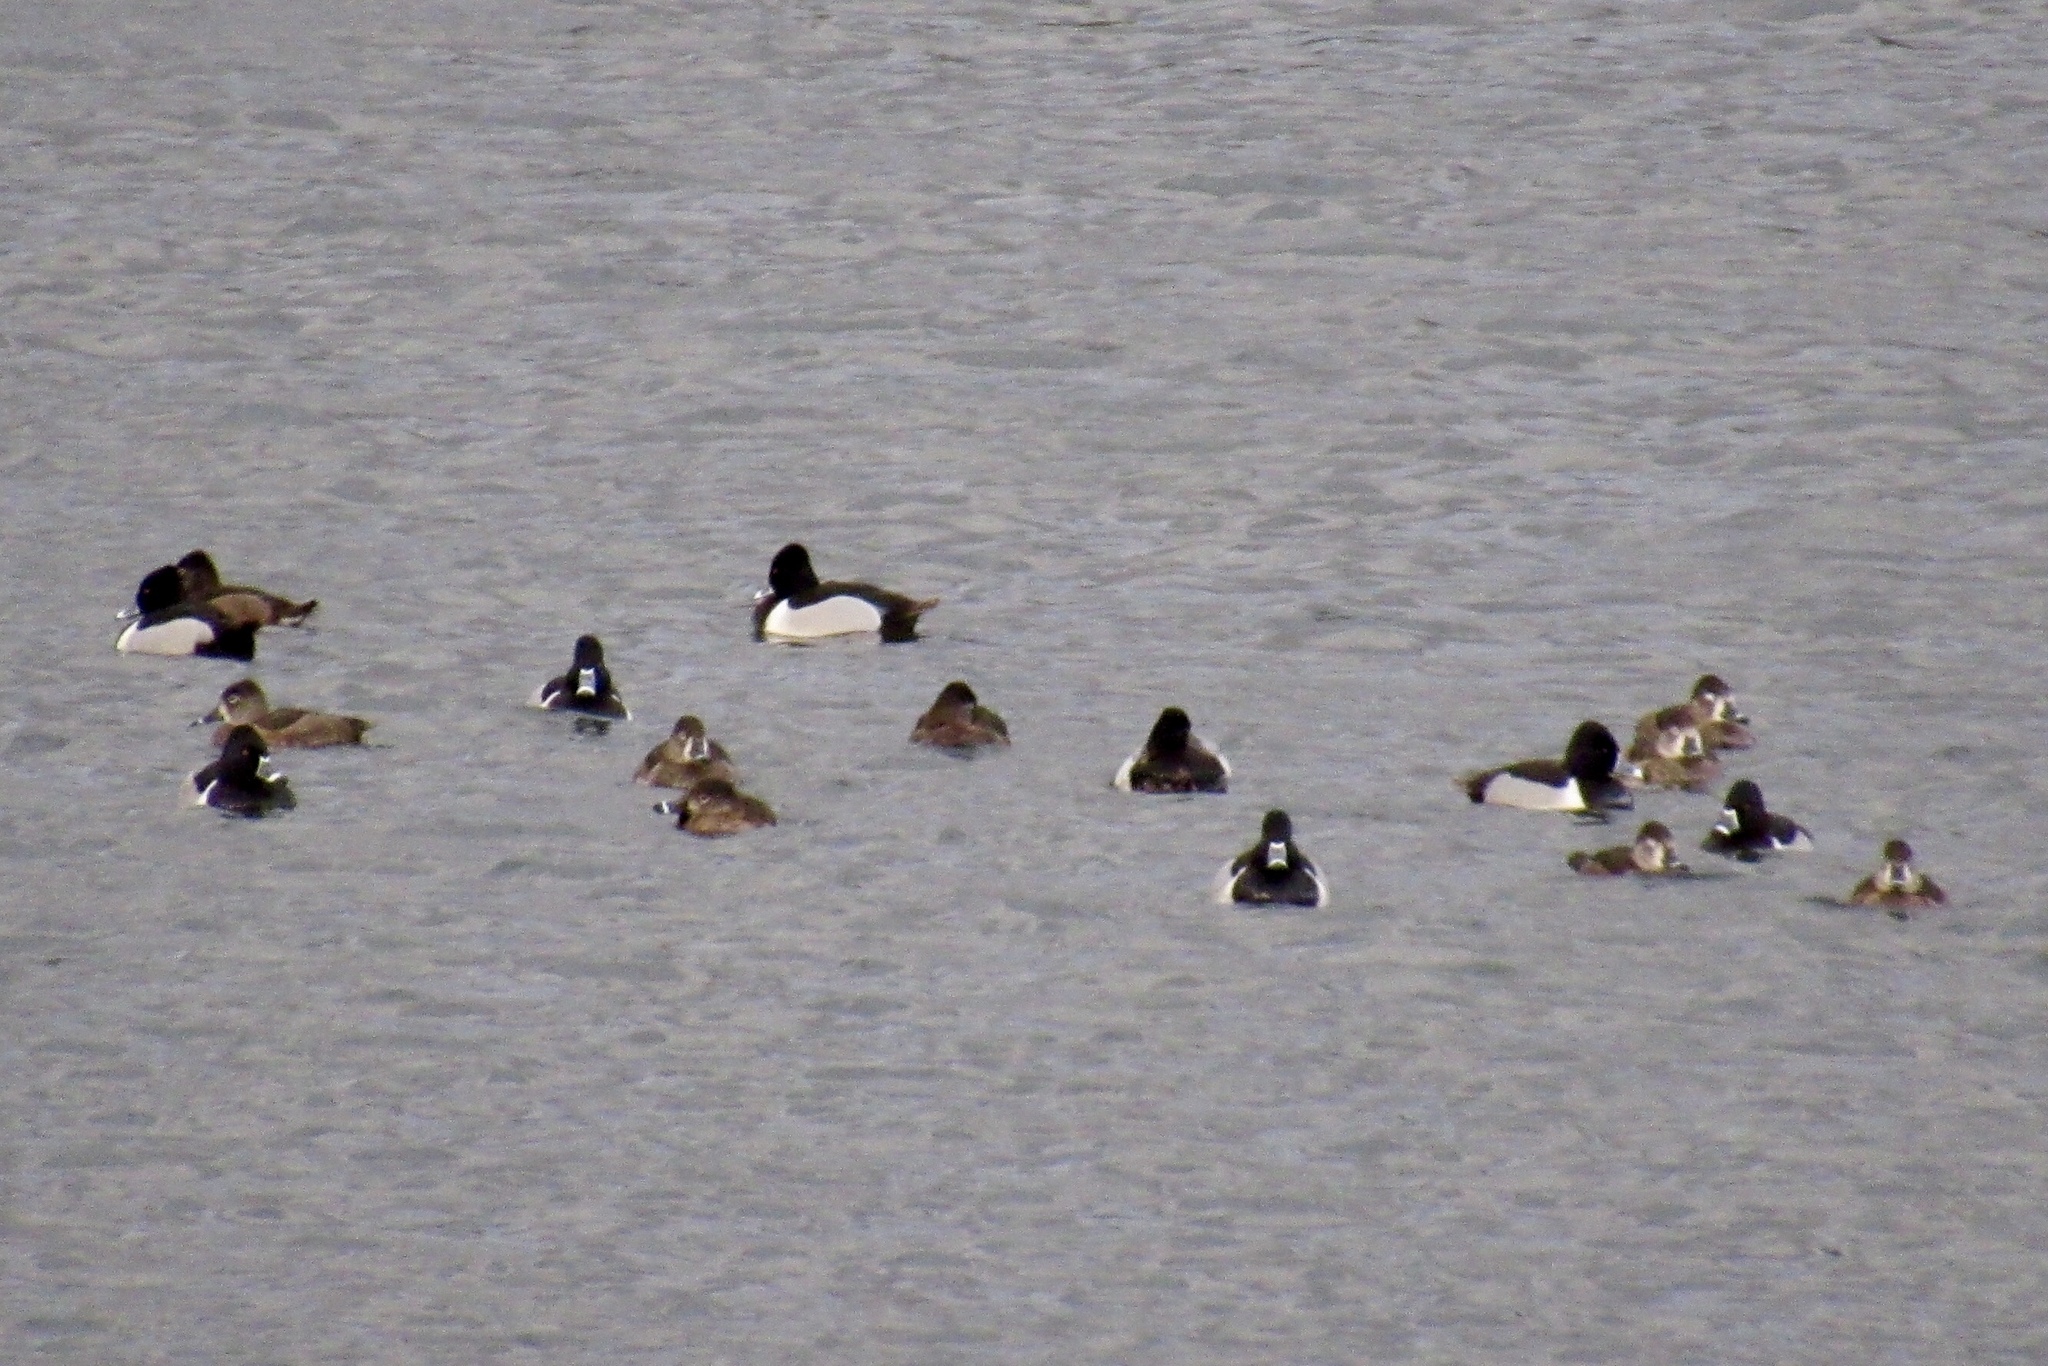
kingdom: Animalia
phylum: Chordata
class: Aves
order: Anseriformes
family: Anatidae
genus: Aythya
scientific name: Aythya collaris
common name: Ring-necked duck
